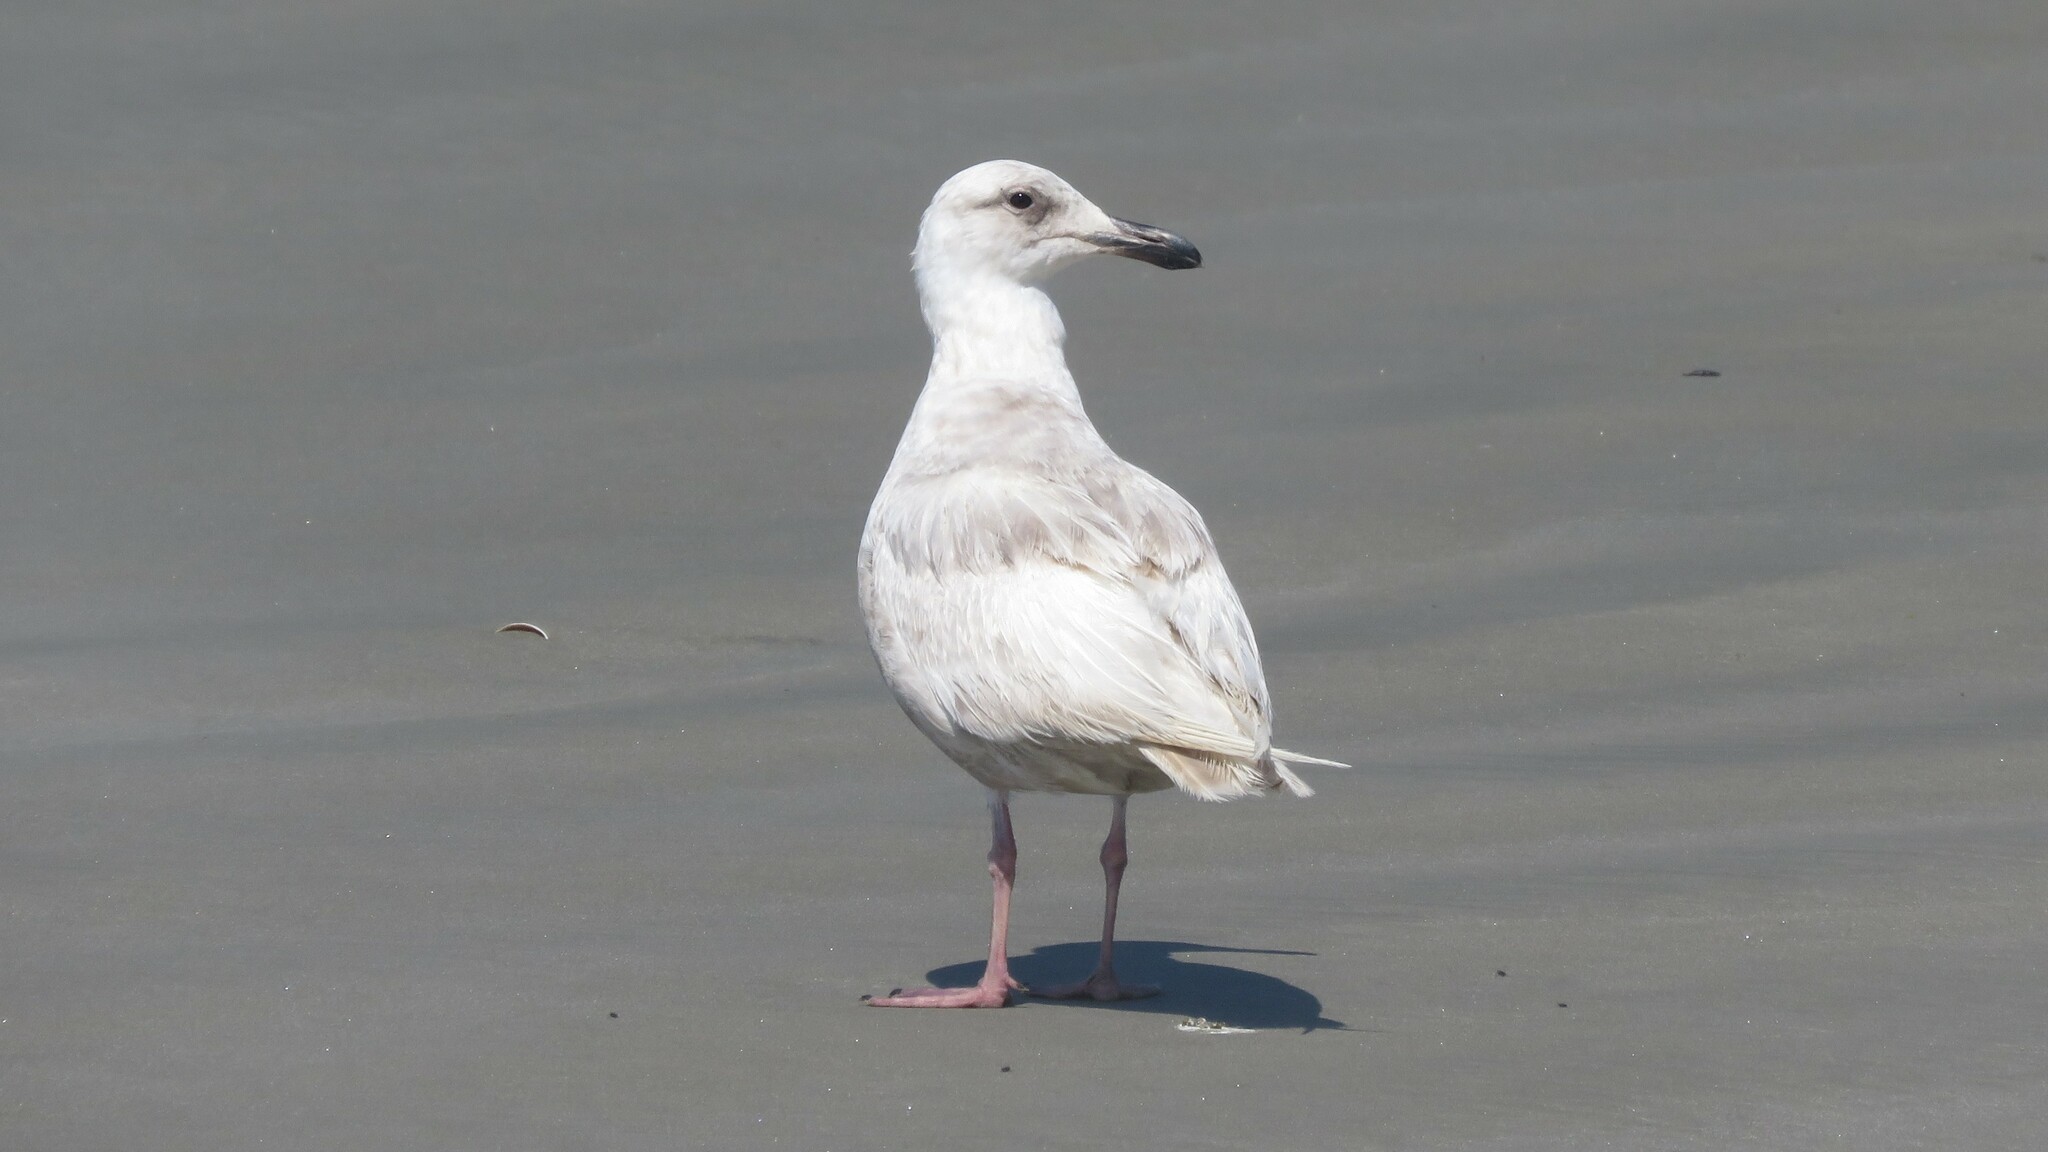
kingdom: Animalia
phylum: Chordata
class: Aves
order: Charadriiformes
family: Laridae
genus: Larus
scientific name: Larus glaucescens
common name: Glaucous-winged gull
